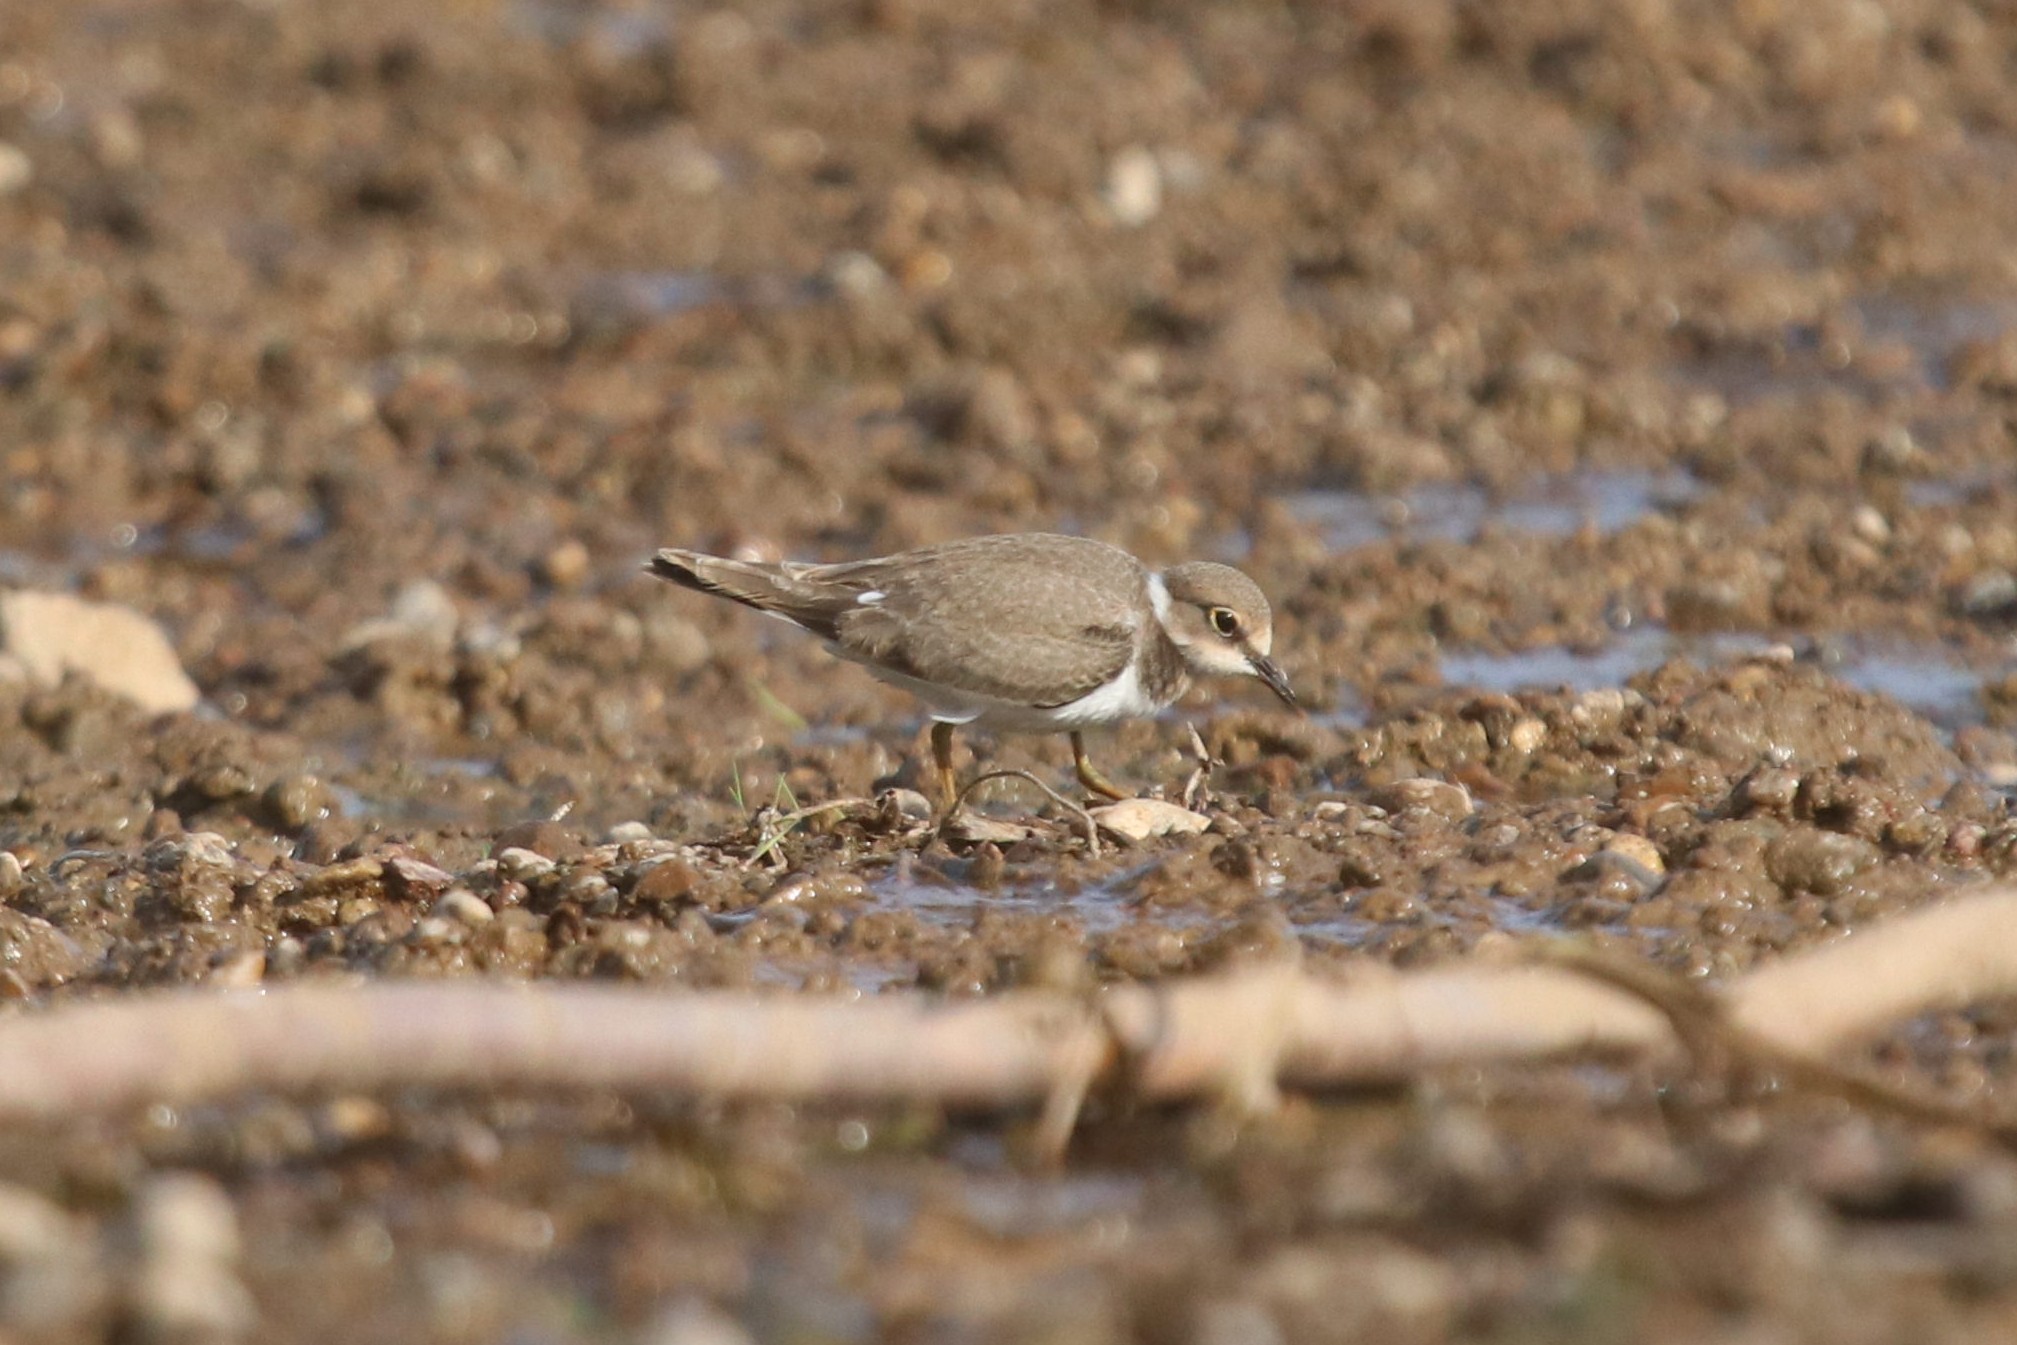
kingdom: Animalia
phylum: Chordata
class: Aves
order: Charadriiformes
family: Charadriidae
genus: Charadrius
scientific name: Charadrius dubius
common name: Little ringed plover
